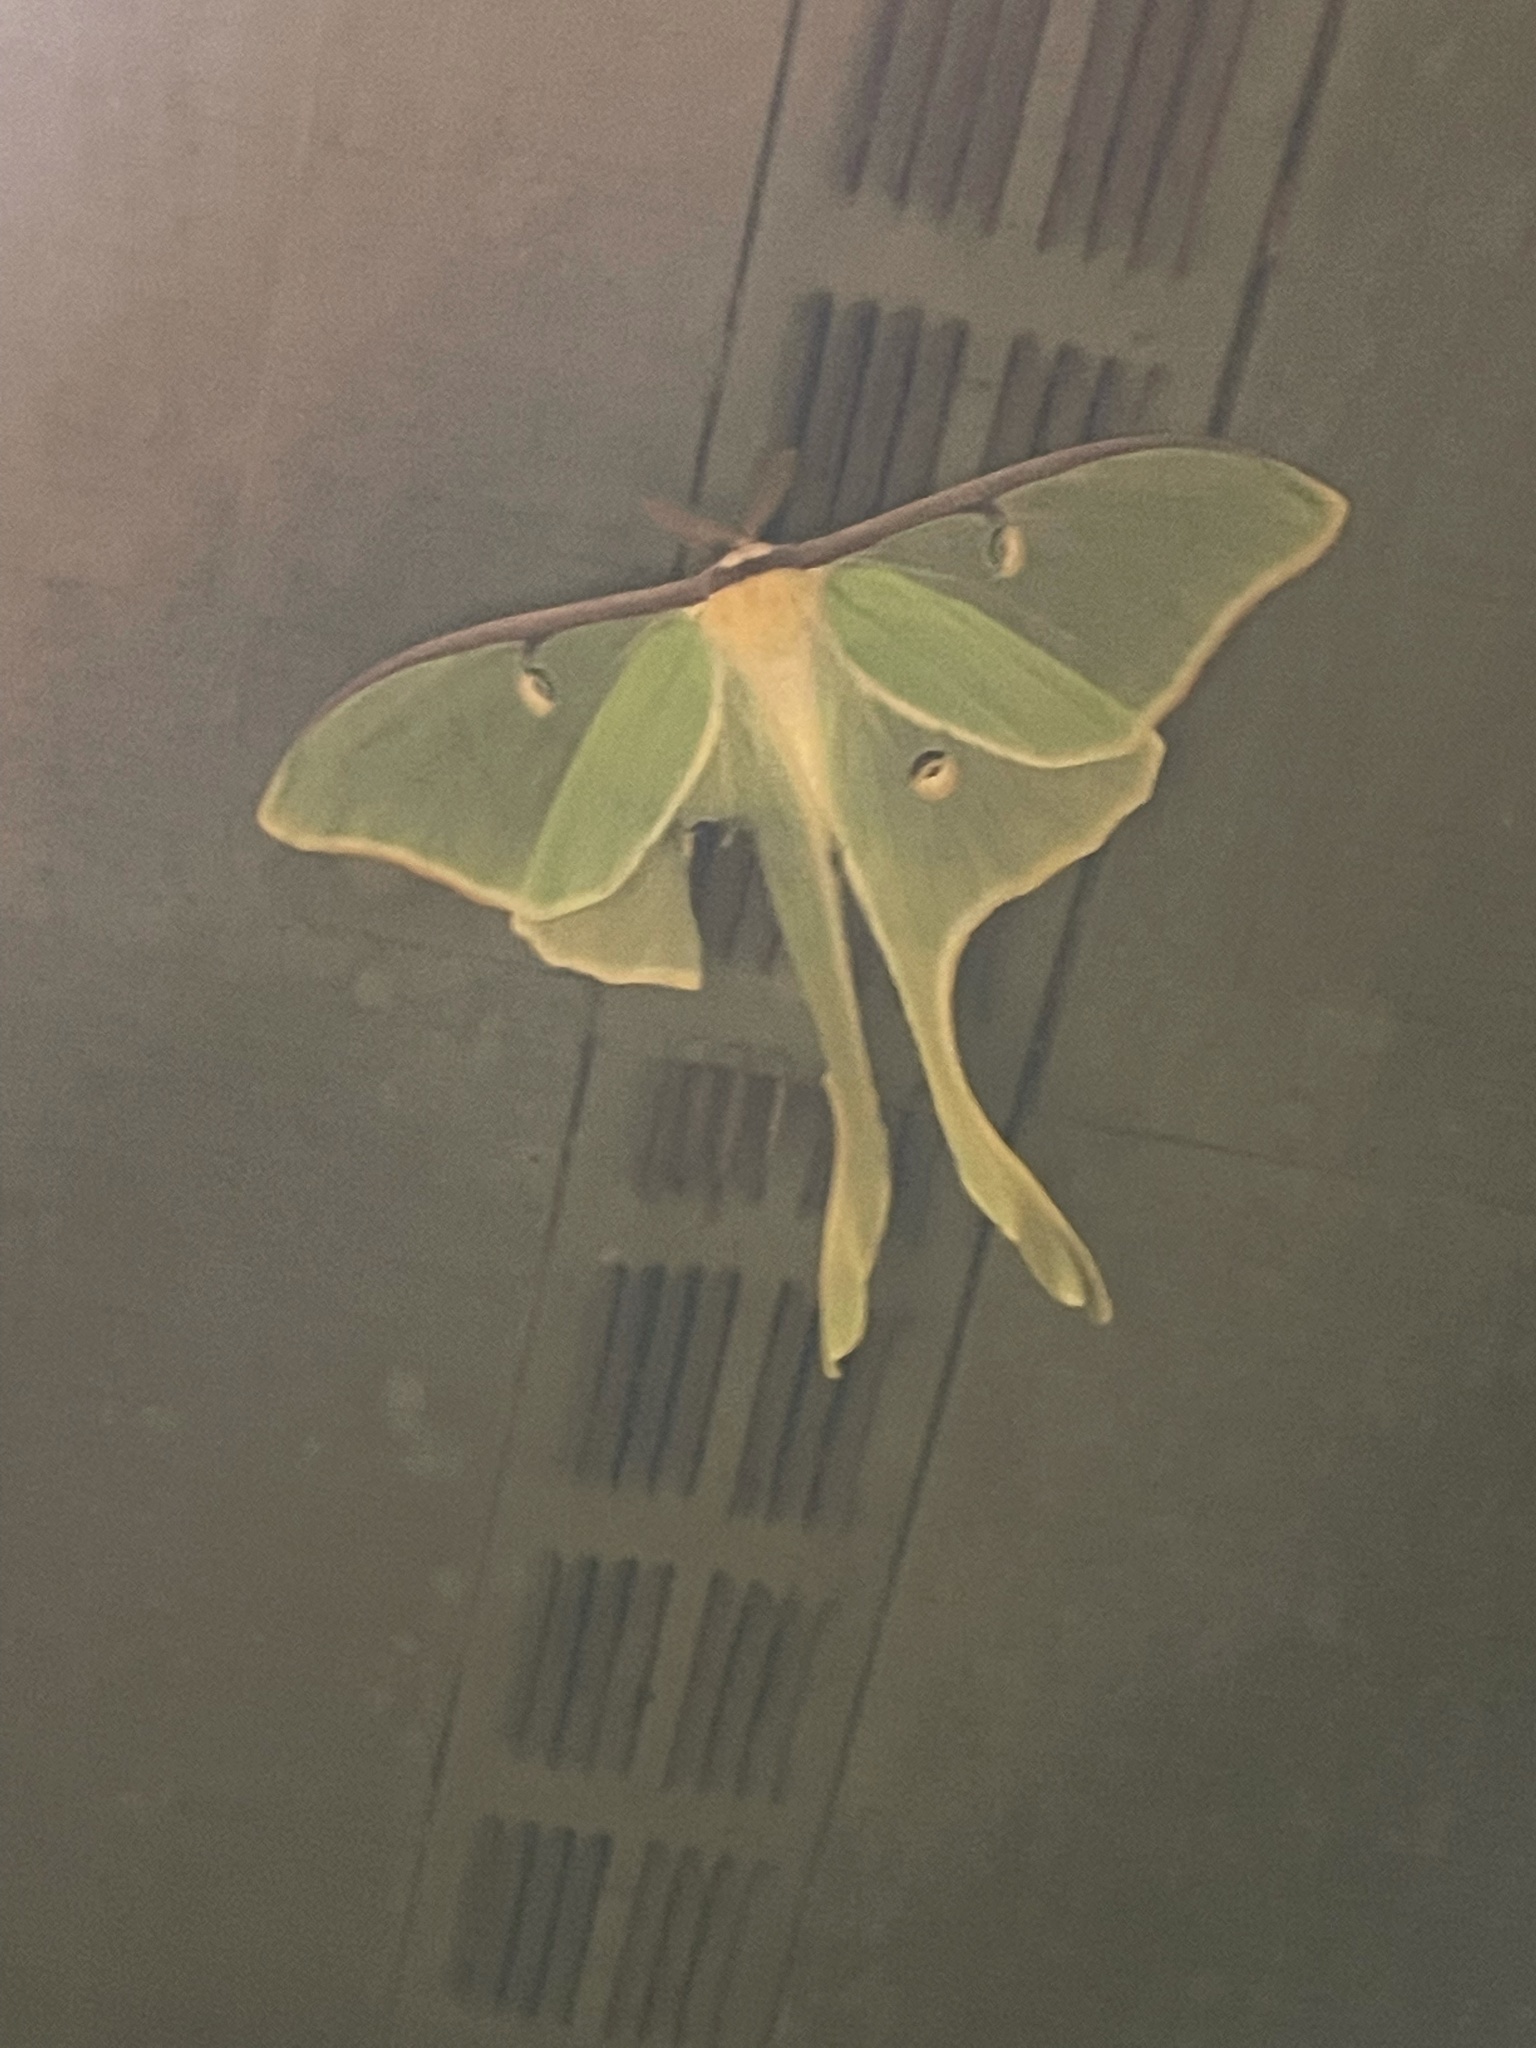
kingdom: Animalia
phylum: Arthropoda
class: Insecta
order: Lepidoptera
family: Saturniidae
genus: Actias
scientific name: Actias luna
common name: Luna moth
